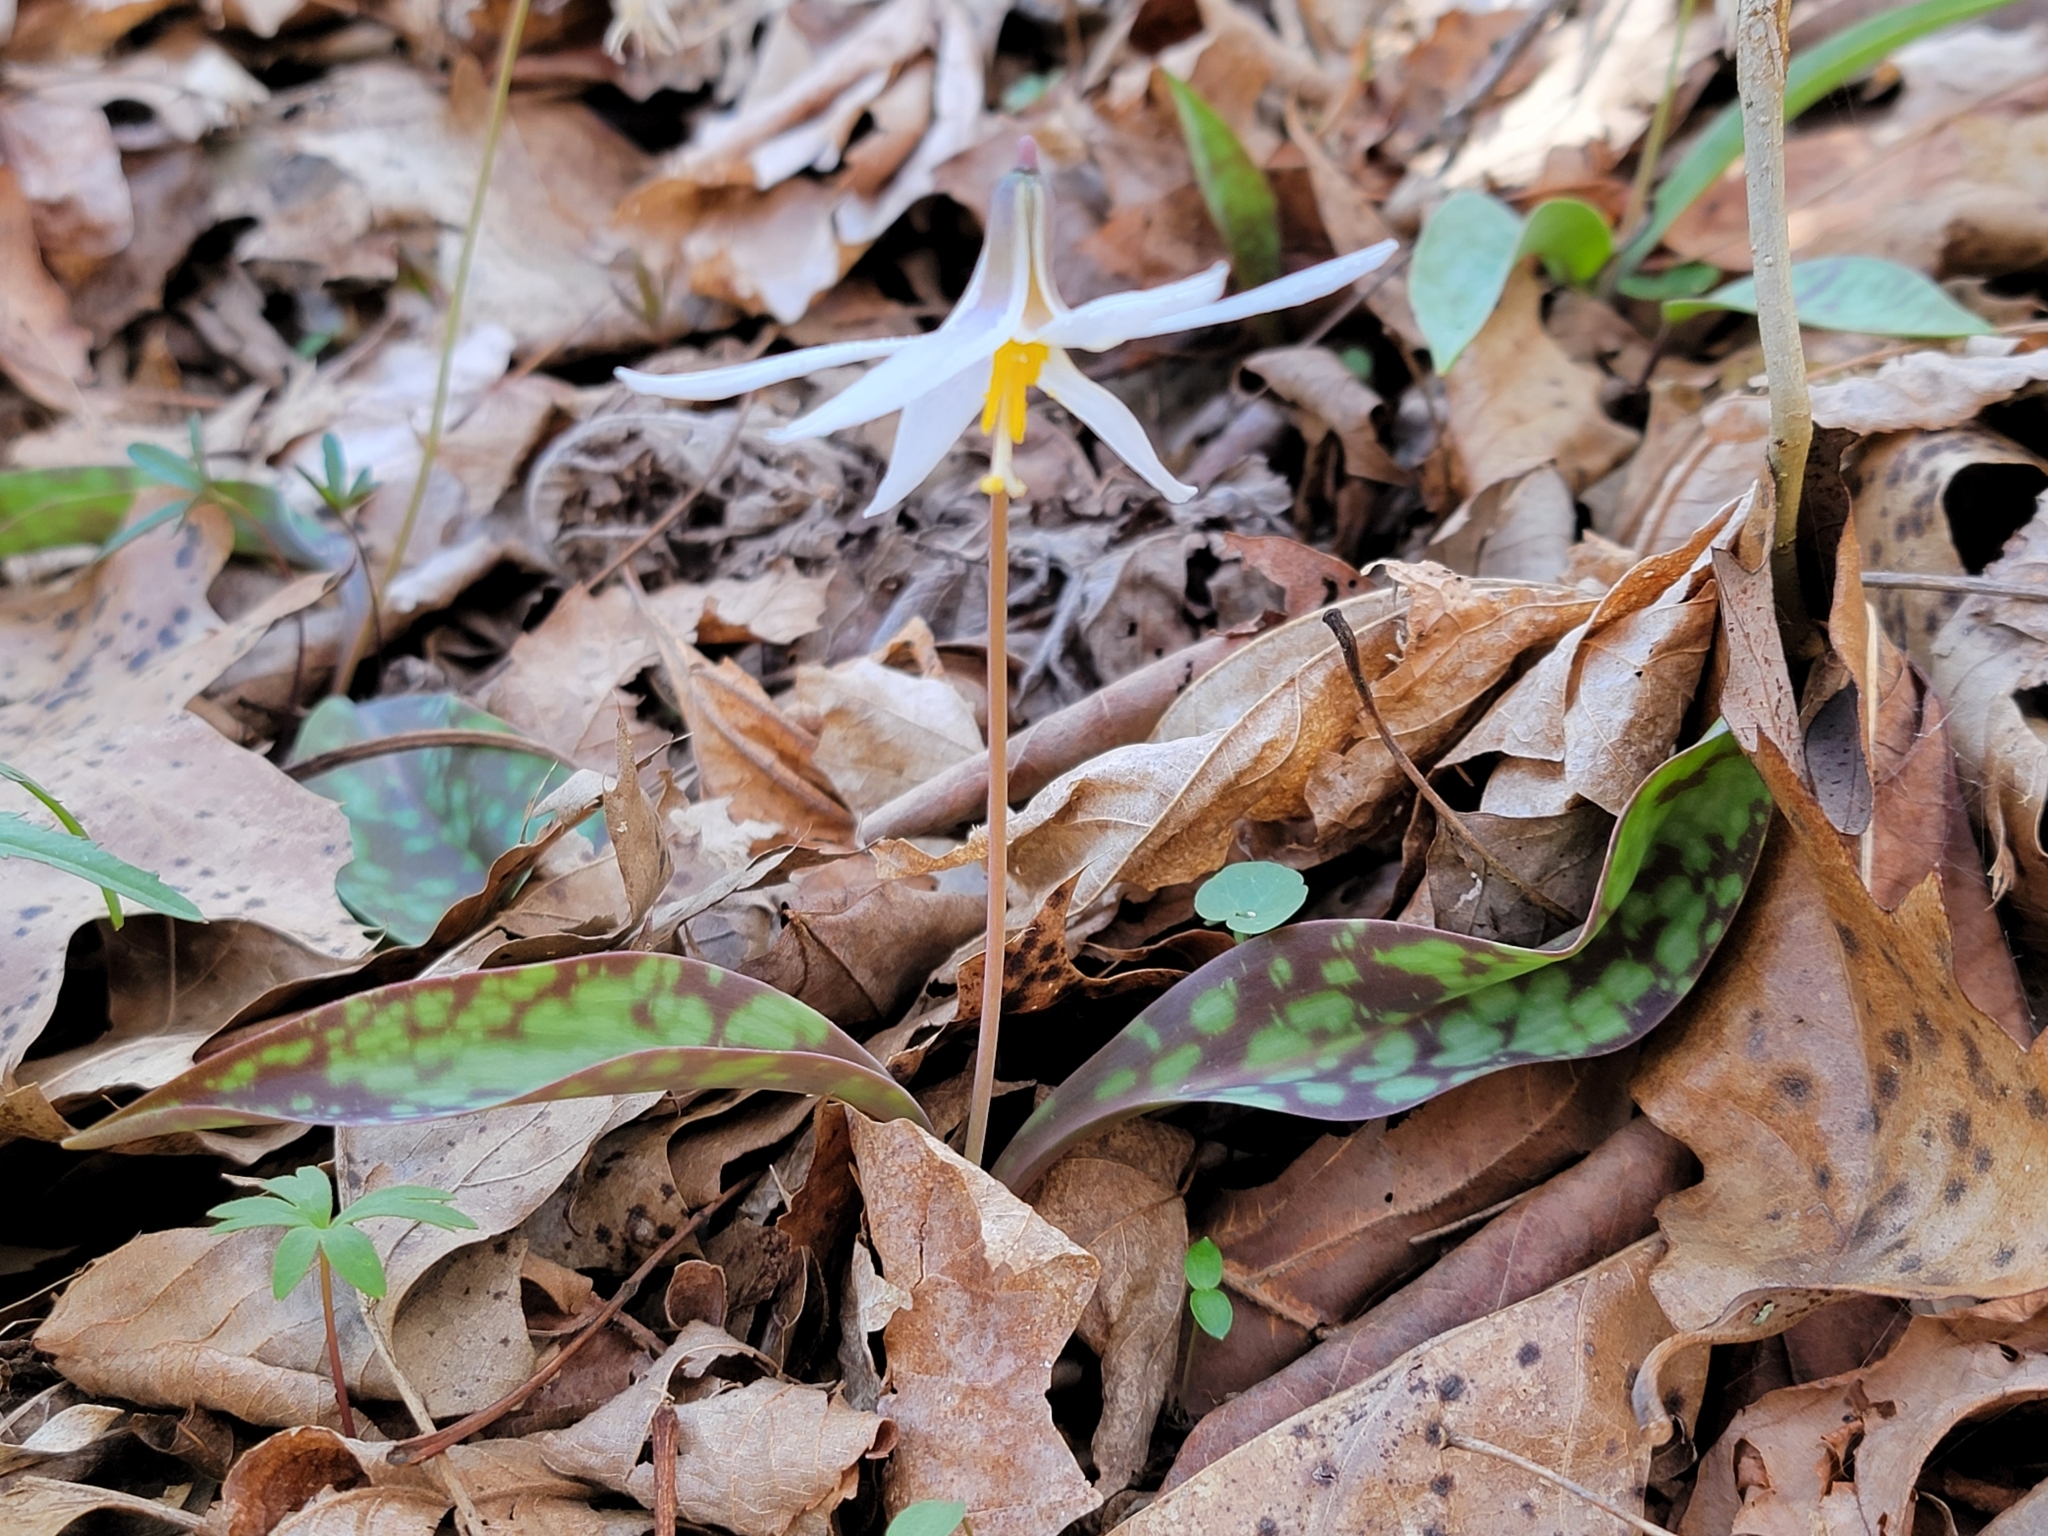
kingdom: Plantae
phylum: Tracheophyta
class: Liliopsida
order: Liliales
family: Liliaceae
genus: Erythronium
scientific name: Erythronium albidum
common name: White trout-lily
